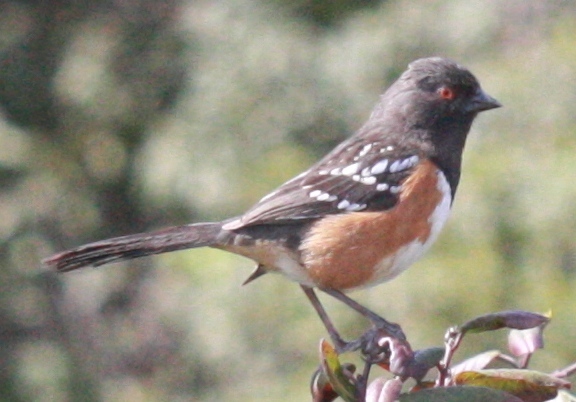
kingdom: Animalia
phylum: Chordata
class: Aves
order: Passeriformes
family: Passerellidae
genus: Pipilo
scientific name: Pipilo maculatus
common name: Spotted towhee
